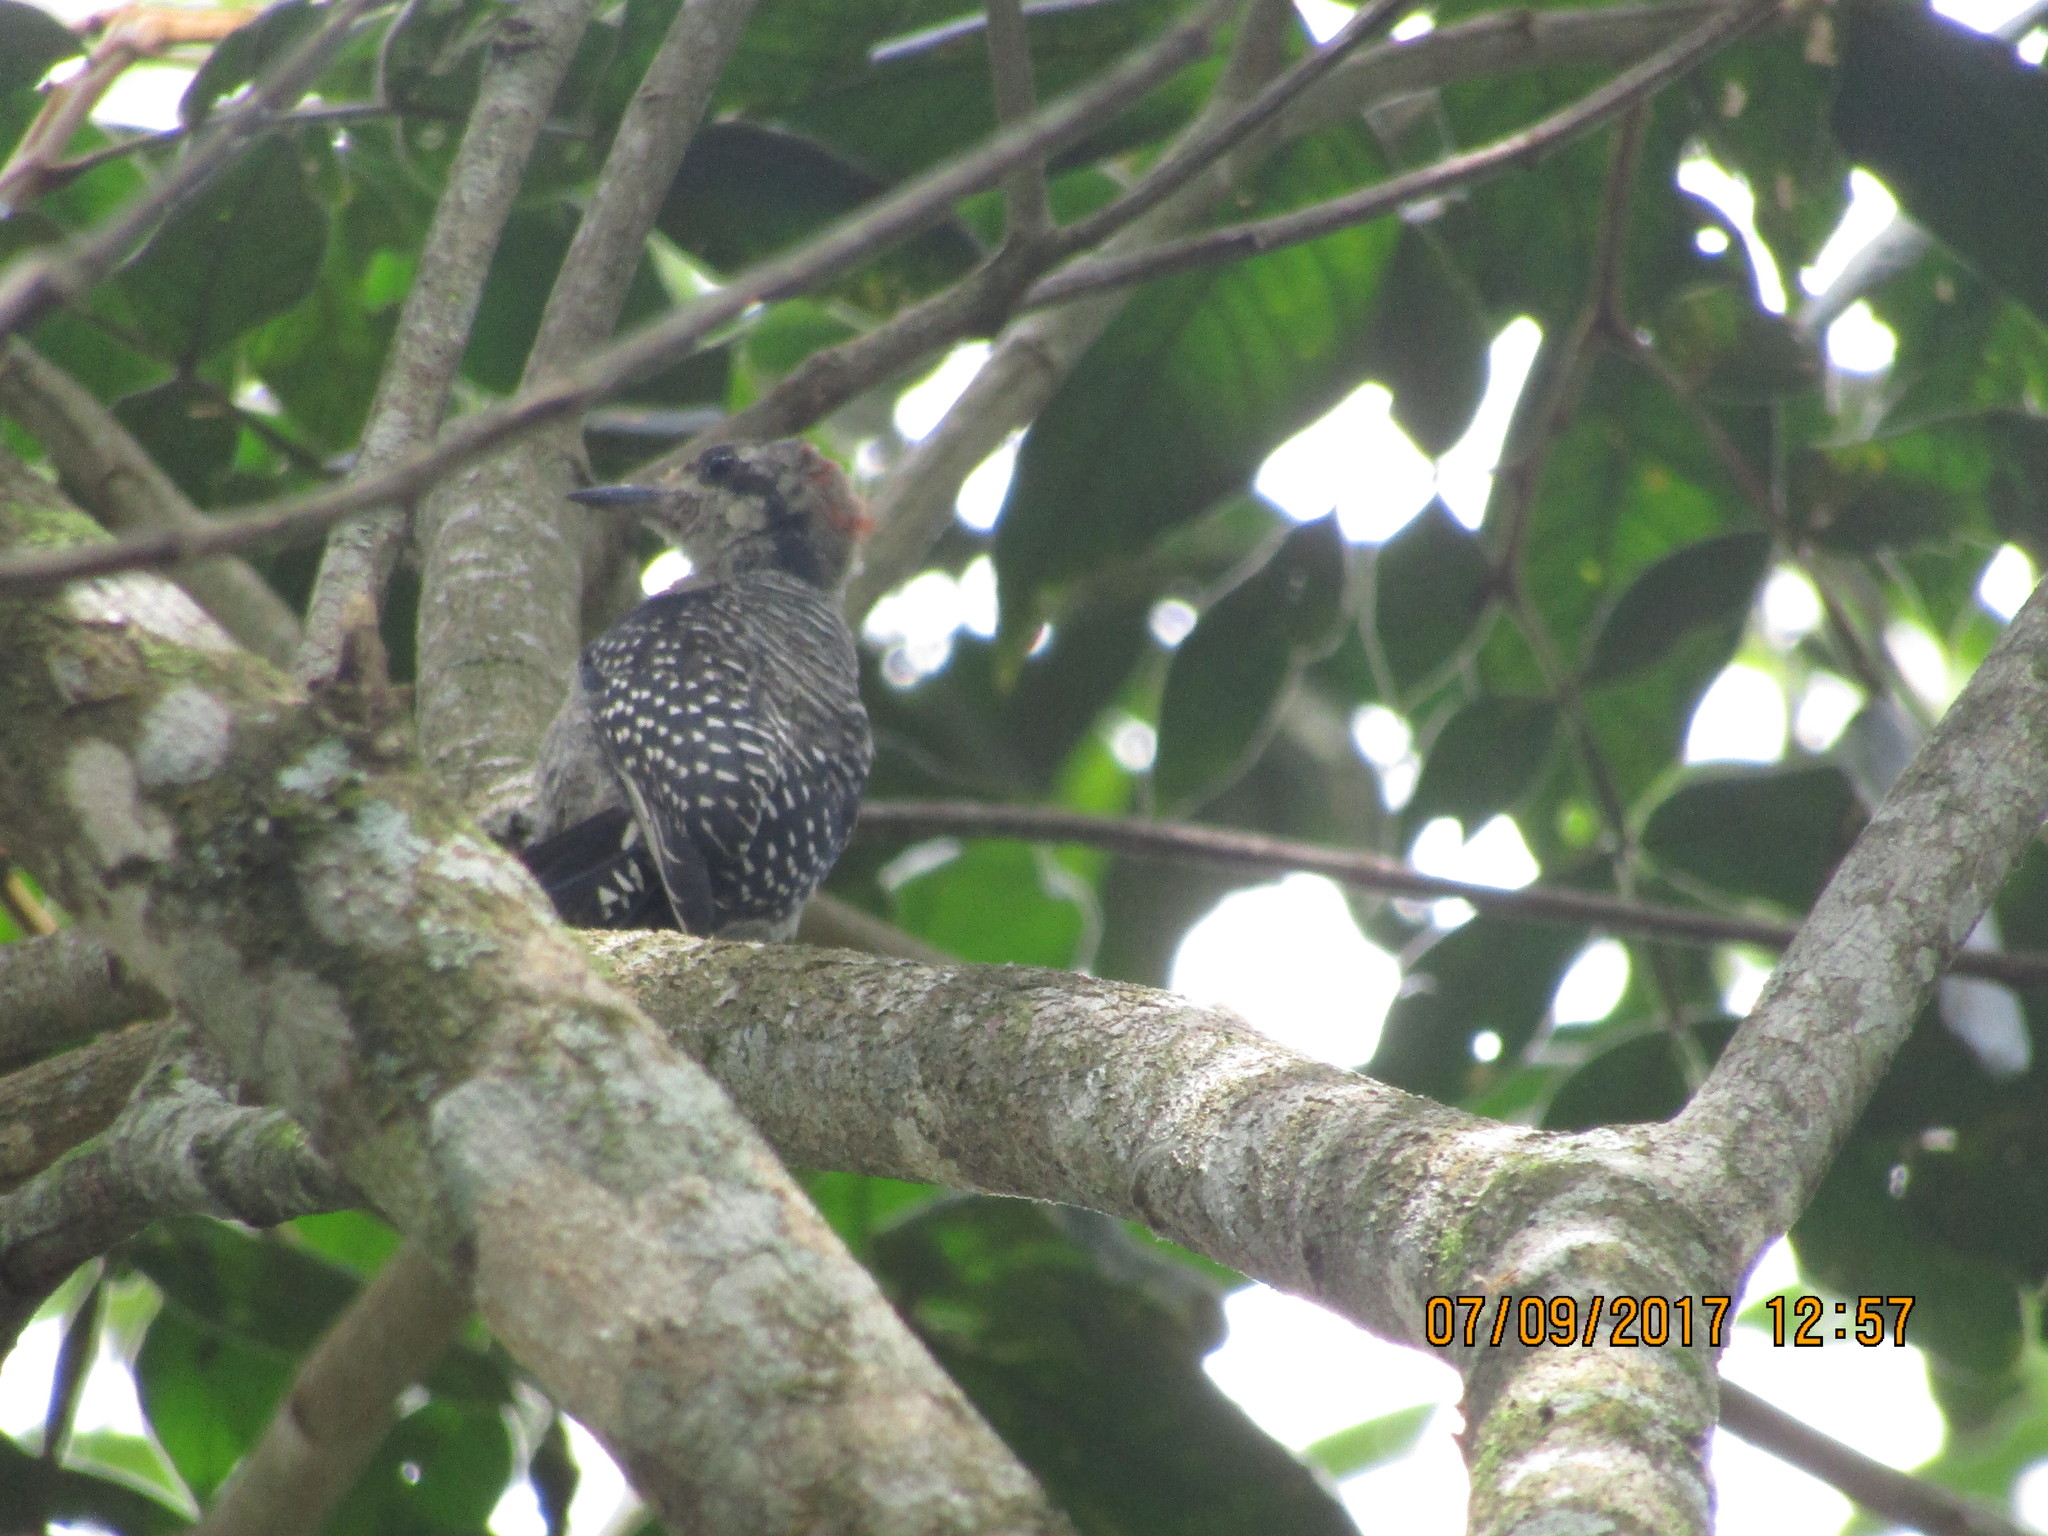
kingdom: Animalia
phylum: Chordata
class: Aves
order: Piciformes
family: Picidae
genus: Melanerpes
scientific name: Melanerpes pucherani
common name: Black-cheeked woodpecker
